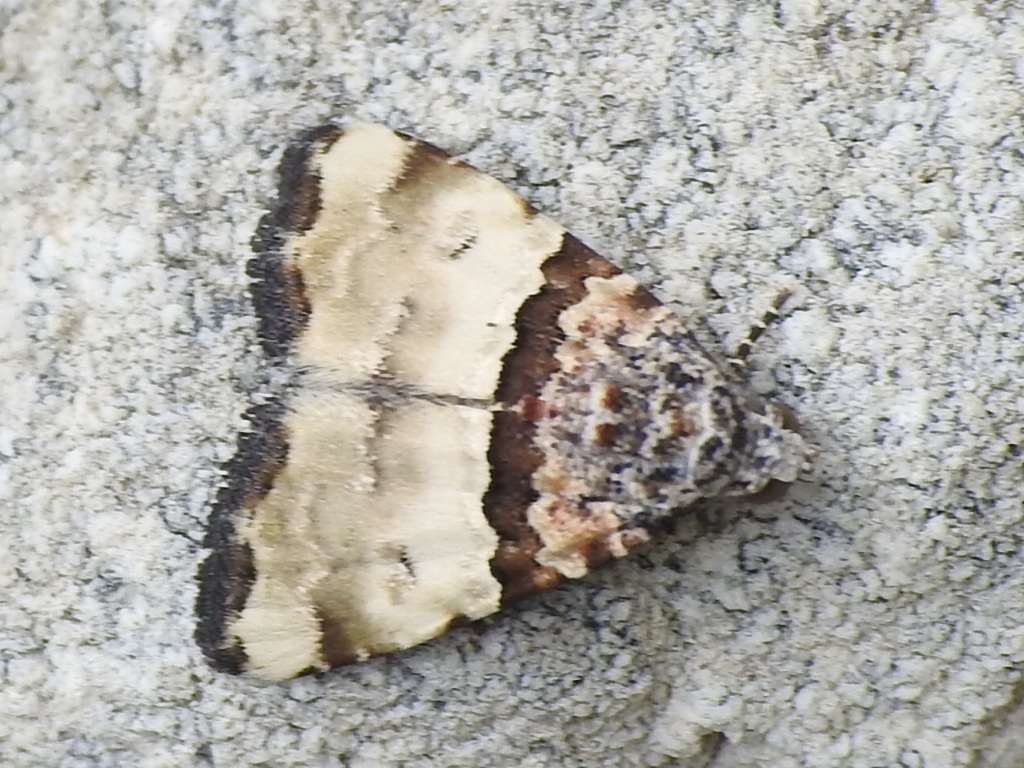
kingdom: Animalia
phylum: Arthropoda
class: Insecta
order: Lepidoptera
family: Noctuidae
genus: Cobubatha
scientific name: Cobubatha dividua
